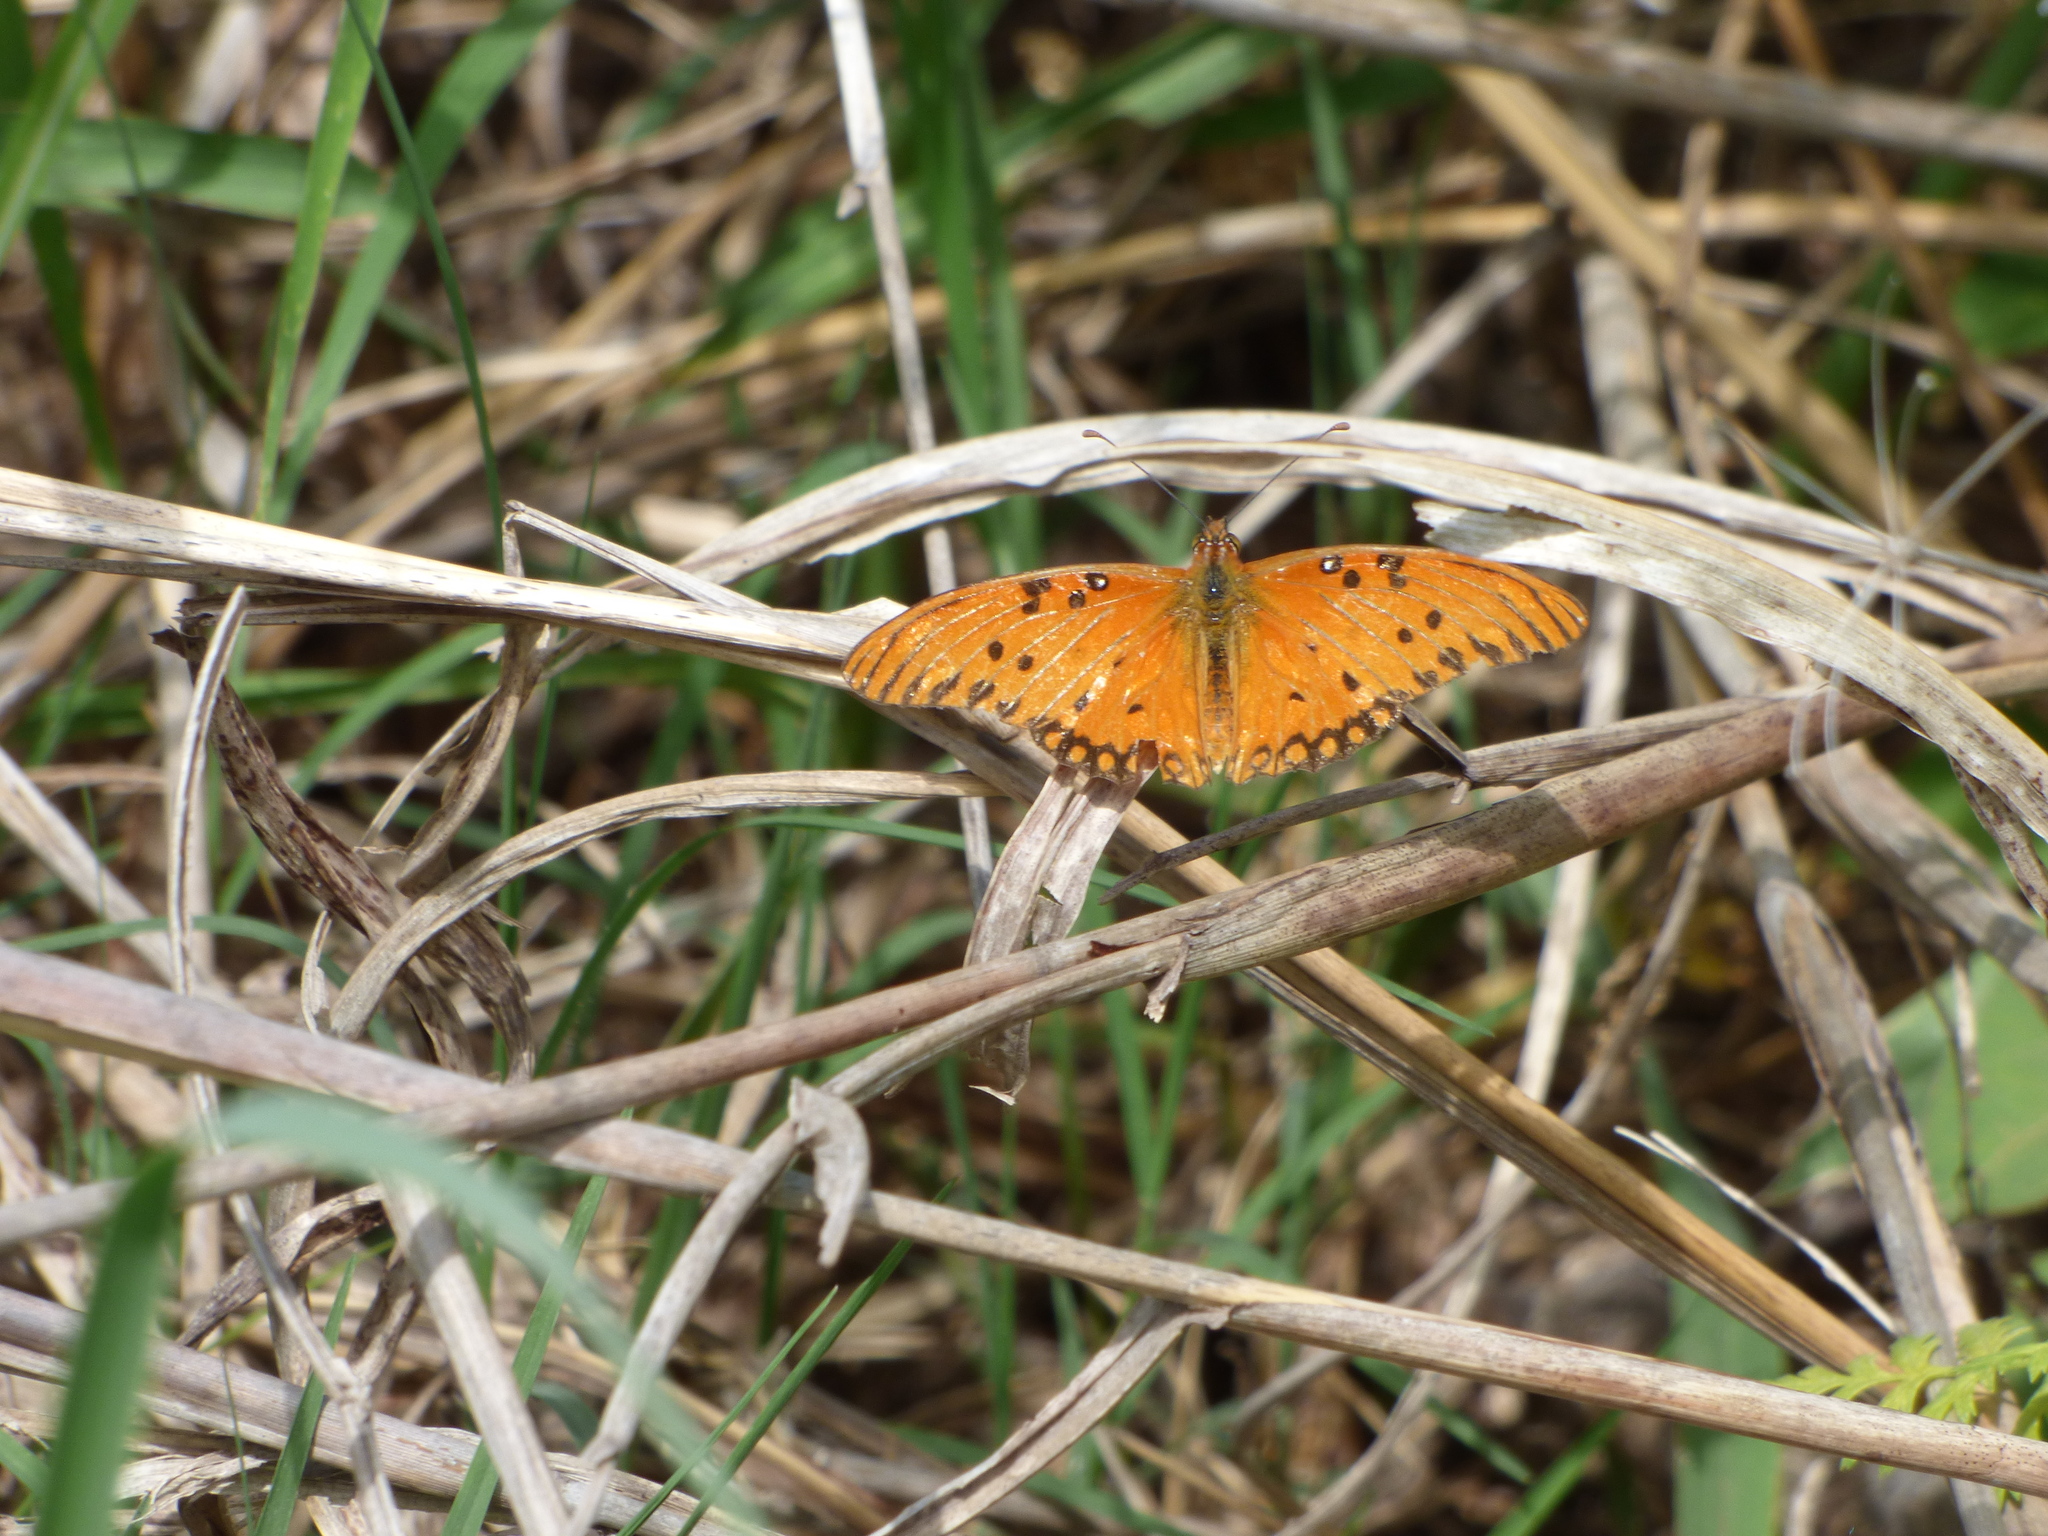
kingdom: Animalia
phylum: Arthropoda
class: Insecta
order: Lepidoptera
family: Nymphalidae
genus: Dione
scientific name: Dione vanillae
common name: Gulf fritillary
